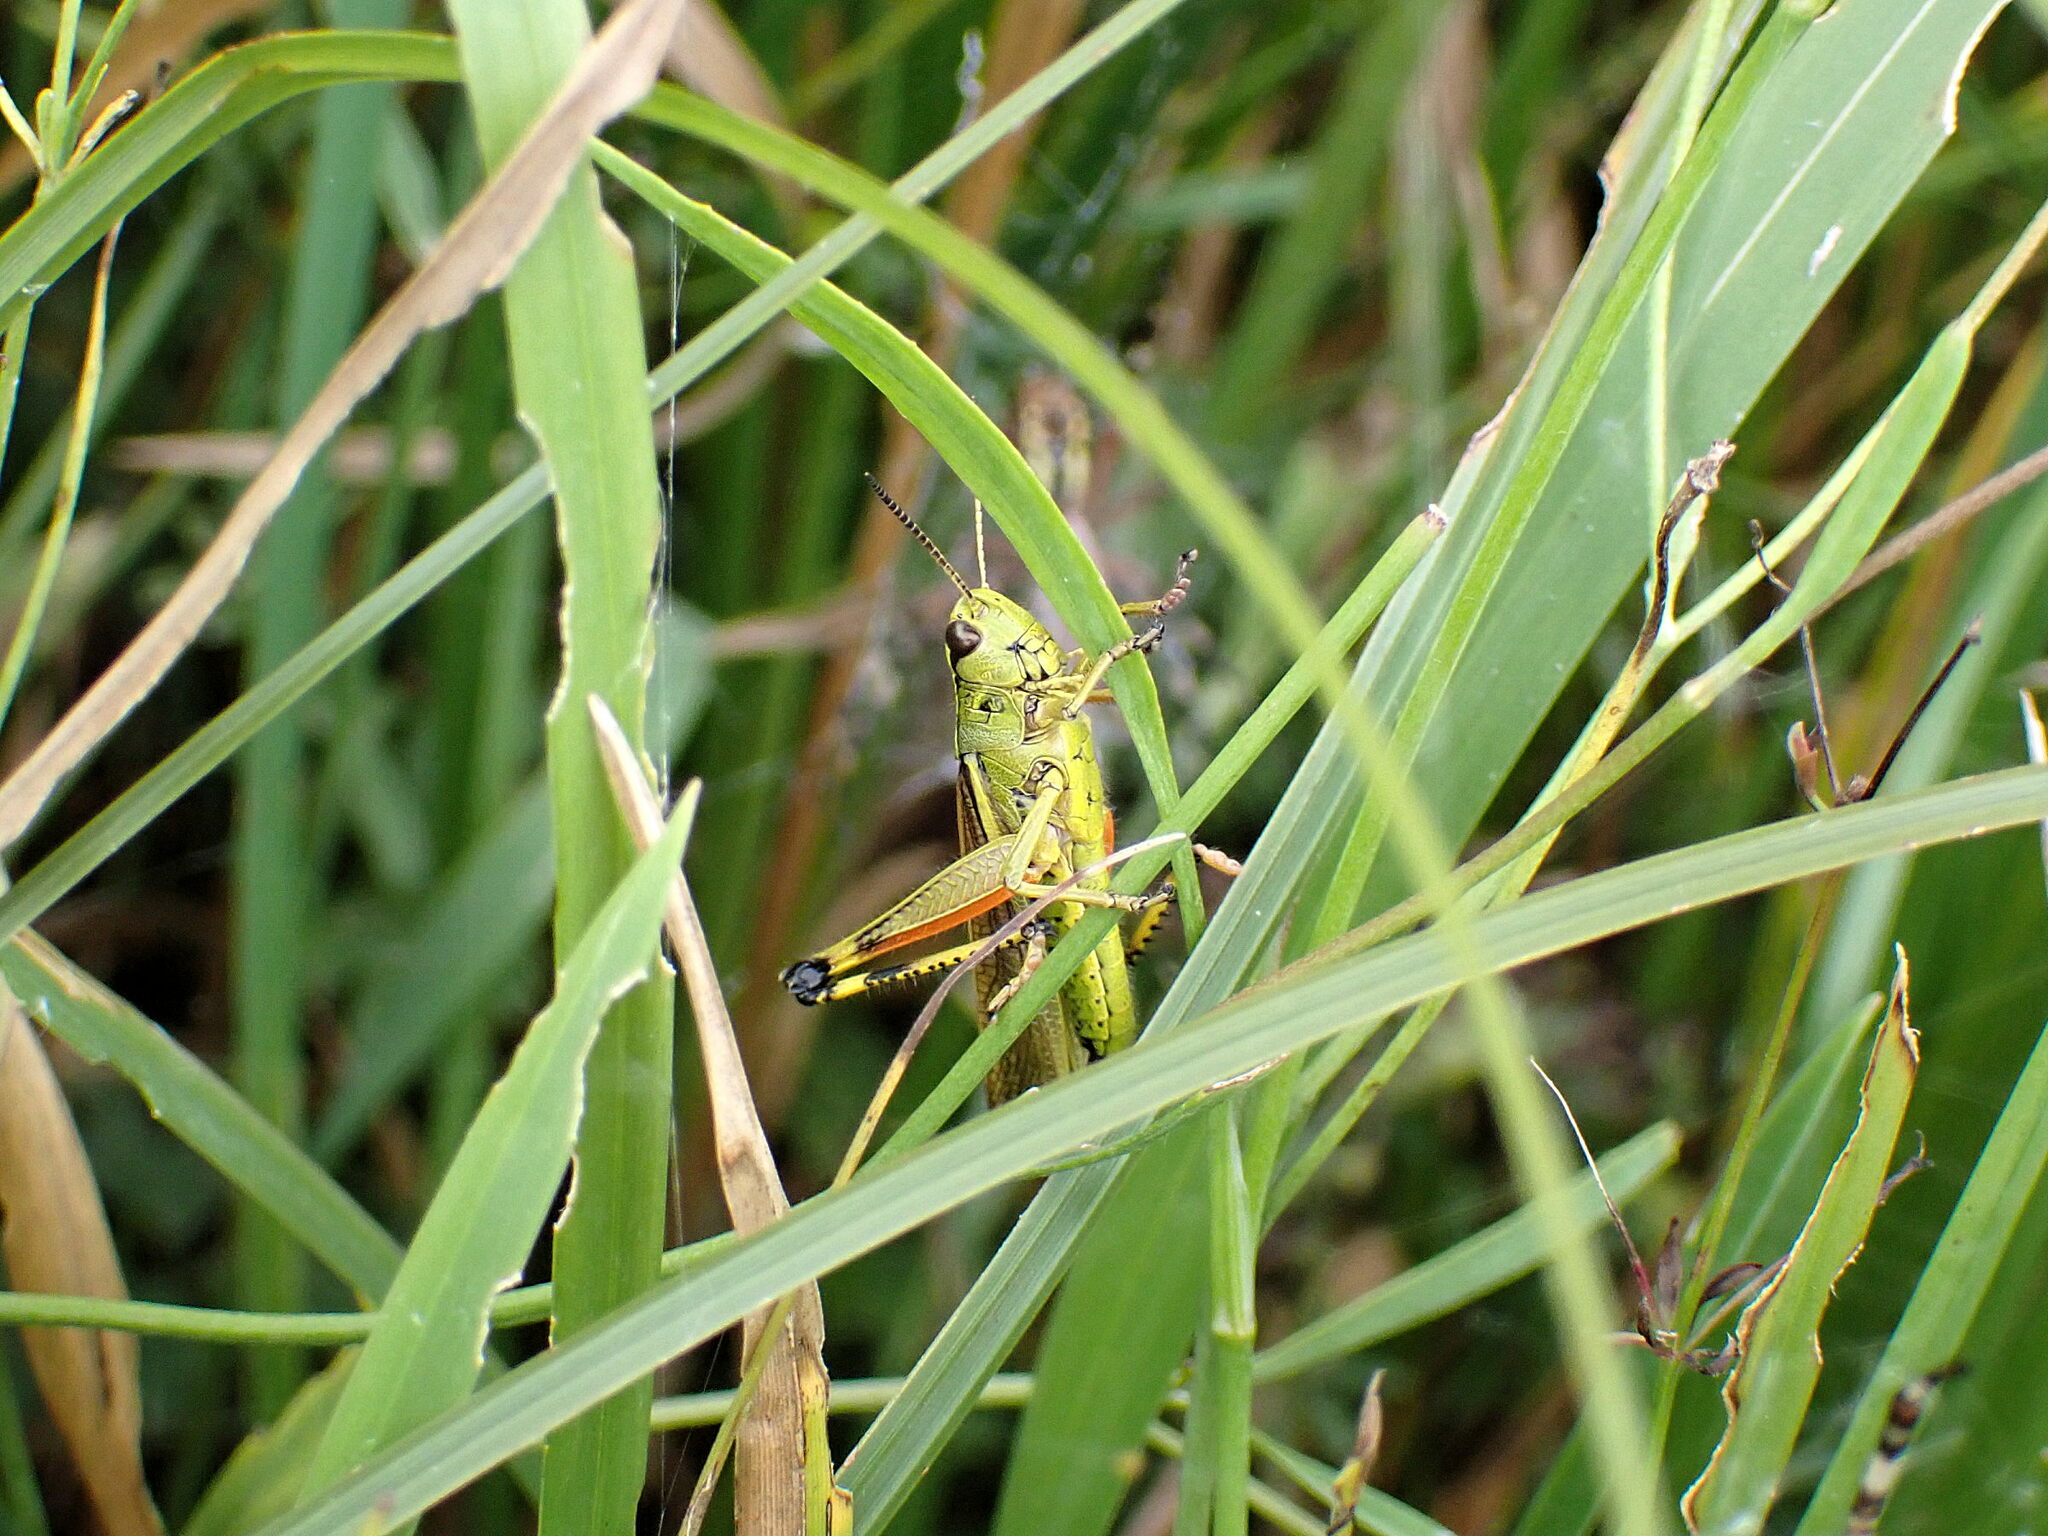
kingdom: Animalia
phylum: Arthropoda
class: Insecta
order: Orthoptera
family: Acrididae
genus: Stethophyma
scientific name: Stethophyma grossum
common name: Large marsh grasshopper
